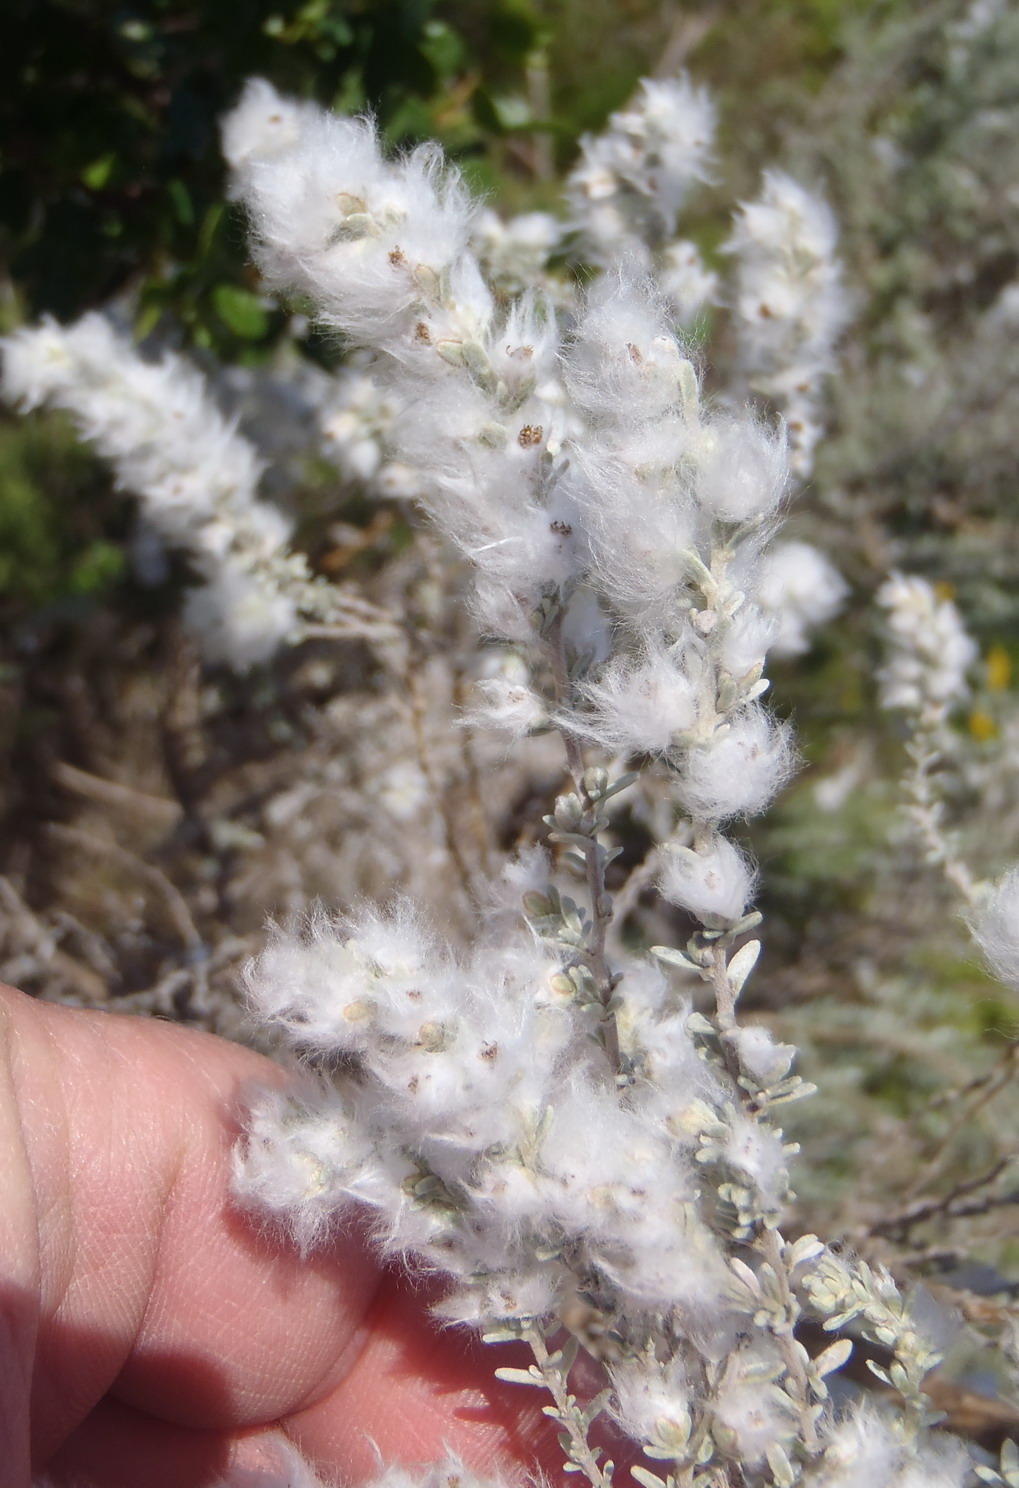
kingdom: Plantae
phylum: Tracheophyta
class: Magnoliopsida
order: Asterales
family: Asteraceae
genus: Eriocephalus
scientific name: Eriocephalus racemosus
